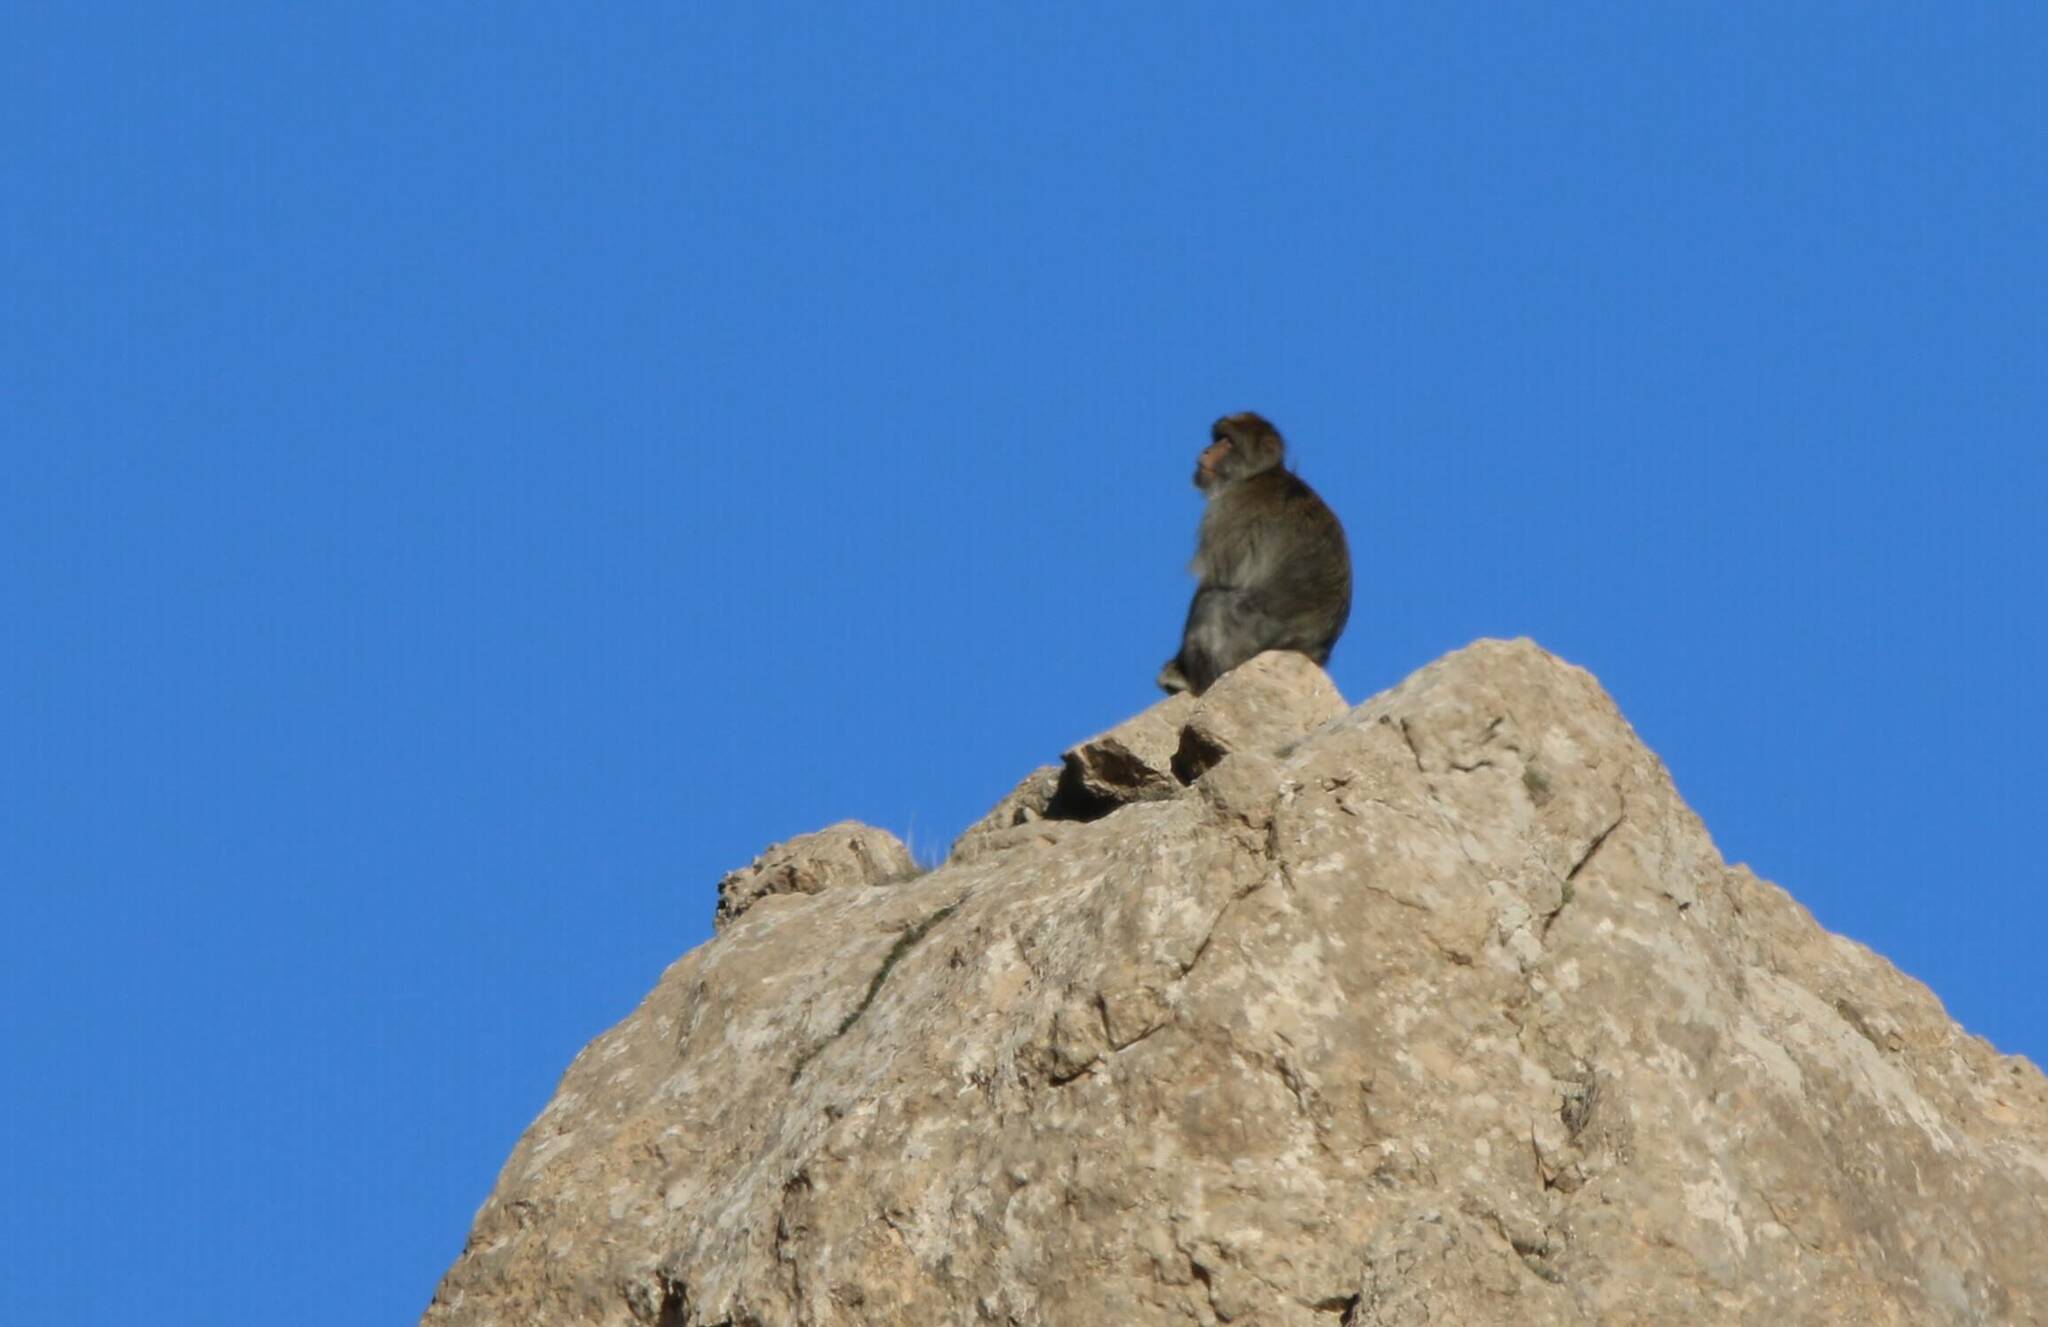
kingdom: Animalia
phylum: Chordata
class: Mammalia
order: Primates
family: Cercopithecidae
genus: Macaca
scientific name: Macaca sylvanus
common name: Barbary macaque
